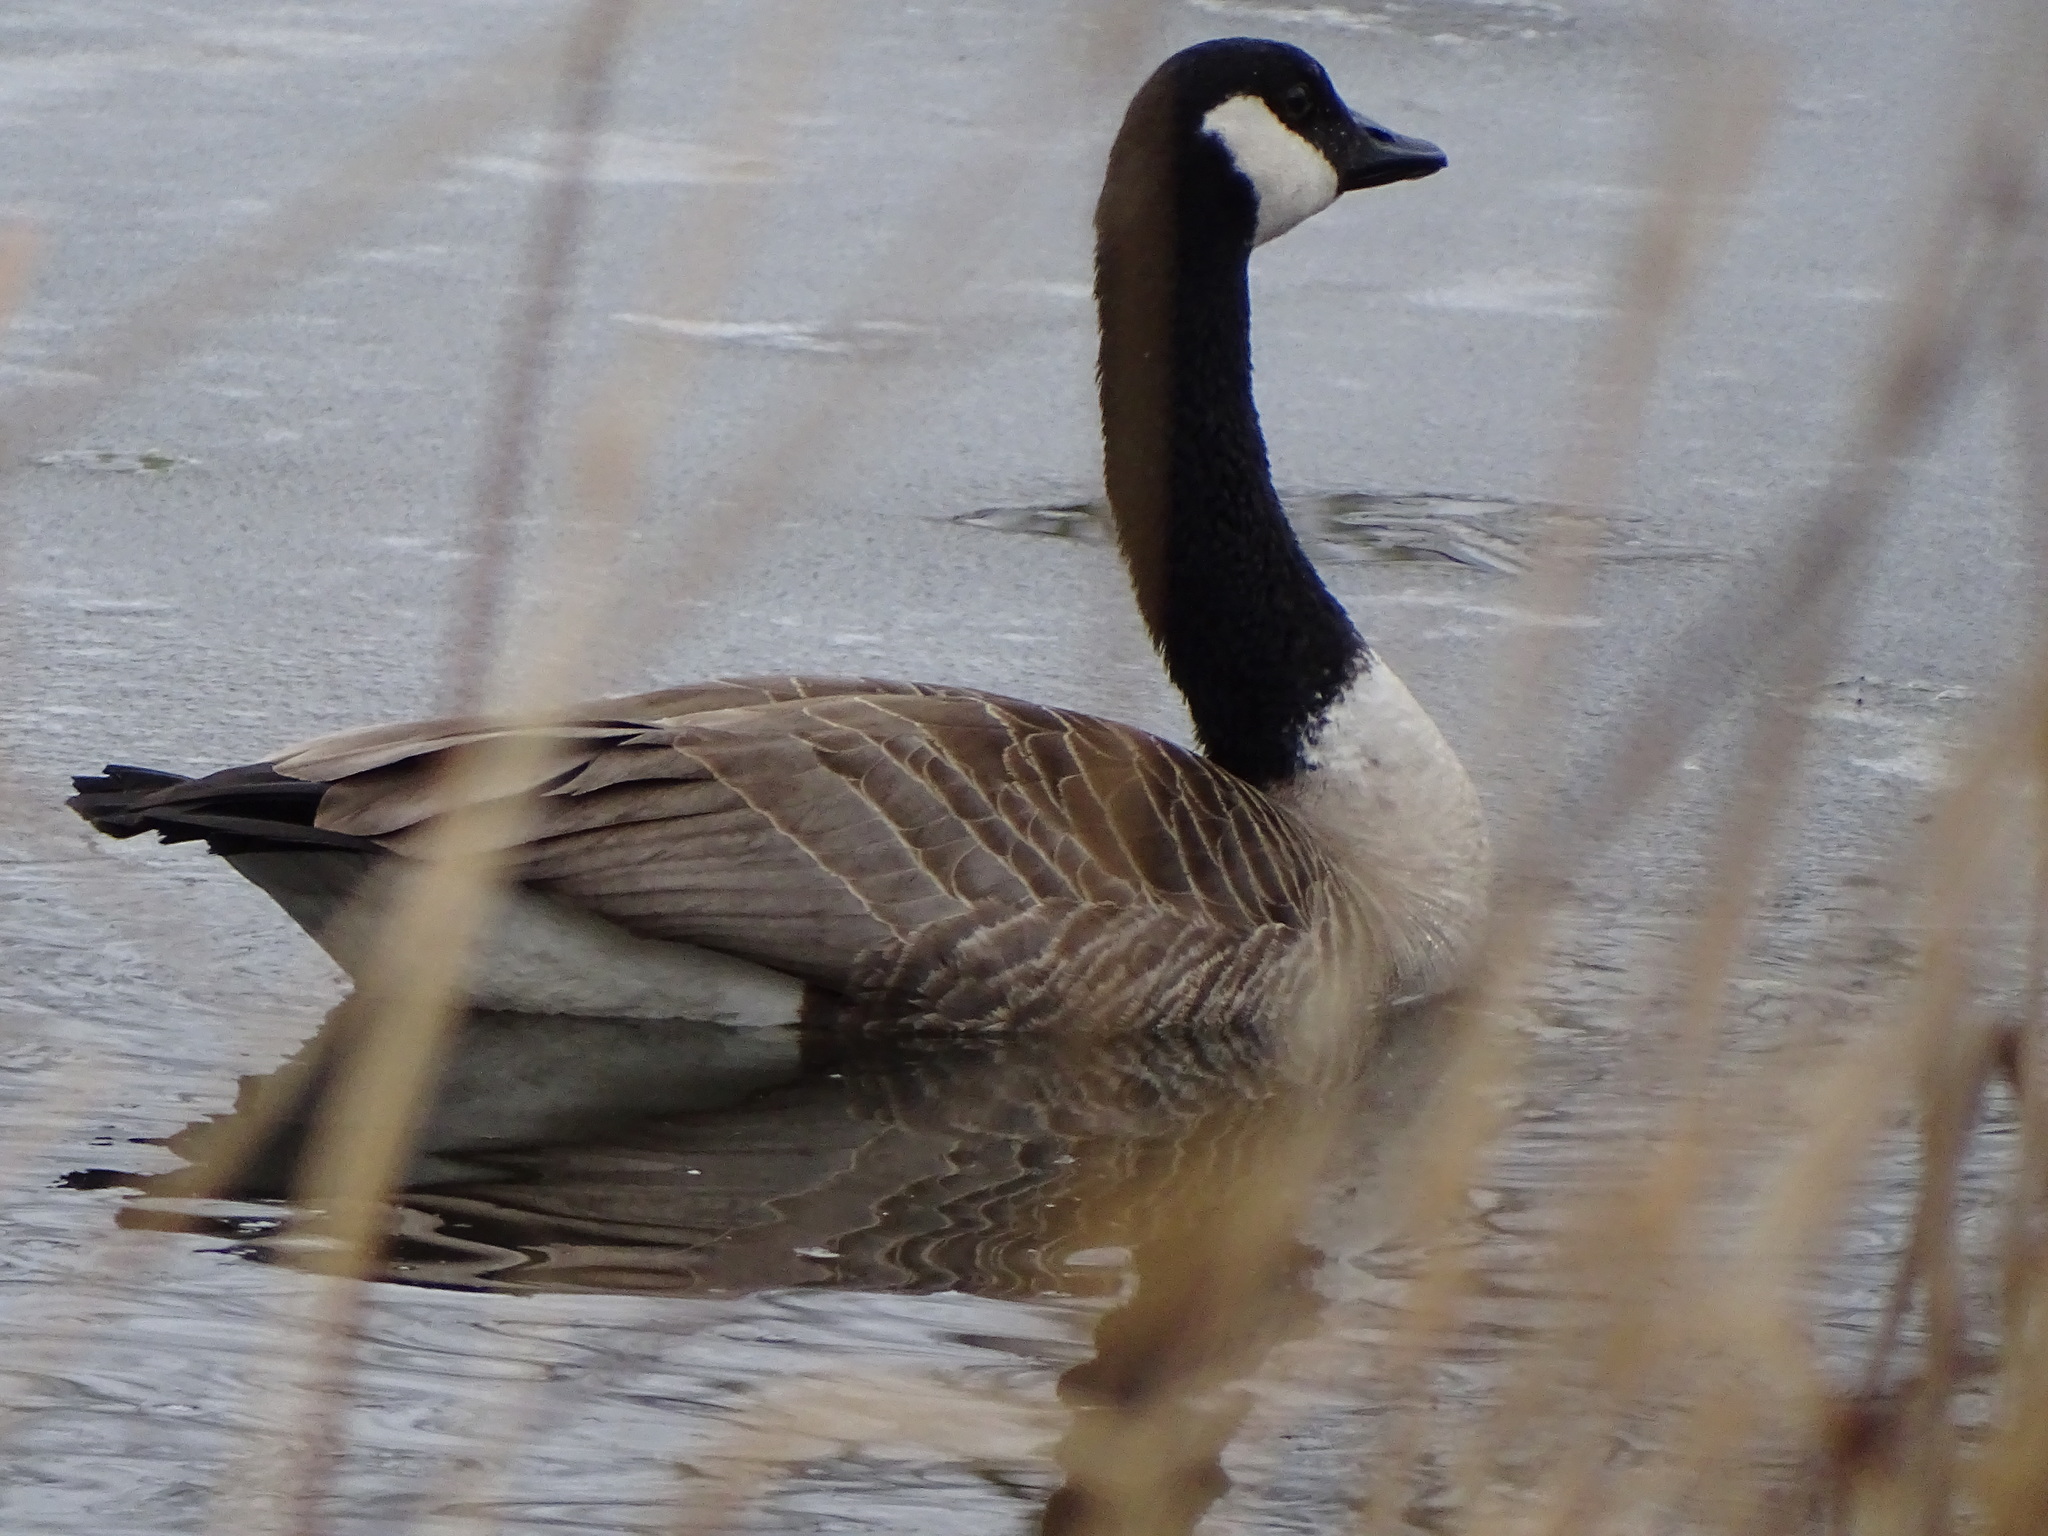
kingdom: Animalia
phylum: Chordata
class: Aves
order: Anseriformes
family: Anatidae
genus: Branta
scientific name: Branta canadensis
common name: Canada goose
